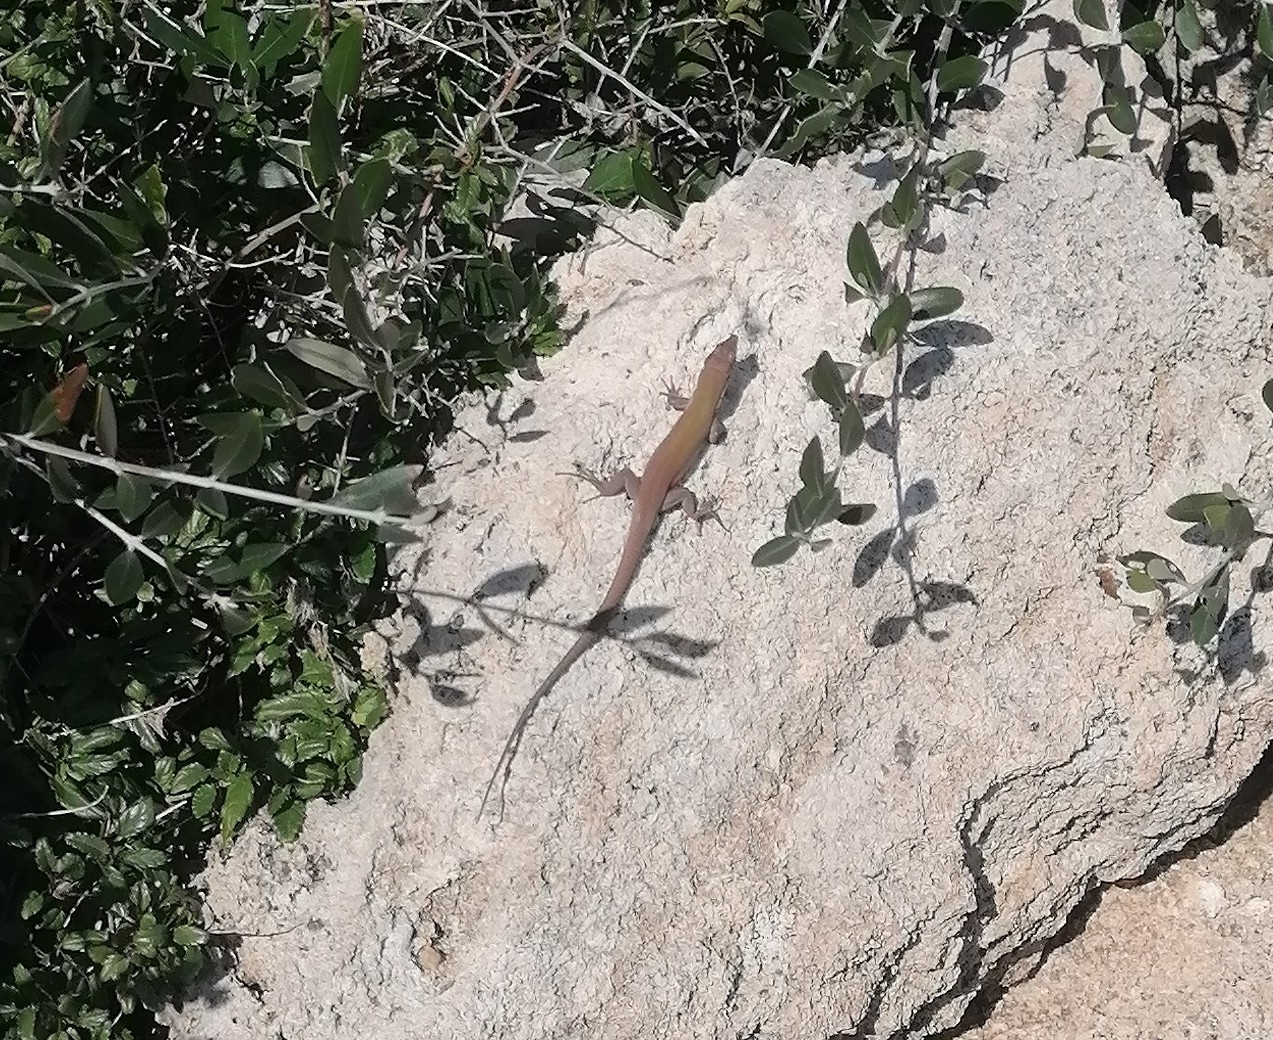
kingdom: Animalia
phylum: Chordata
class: Squamata
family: Lacertidae
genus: Podarcis
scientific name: Podarcis siculus
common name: Italian wall lizard
